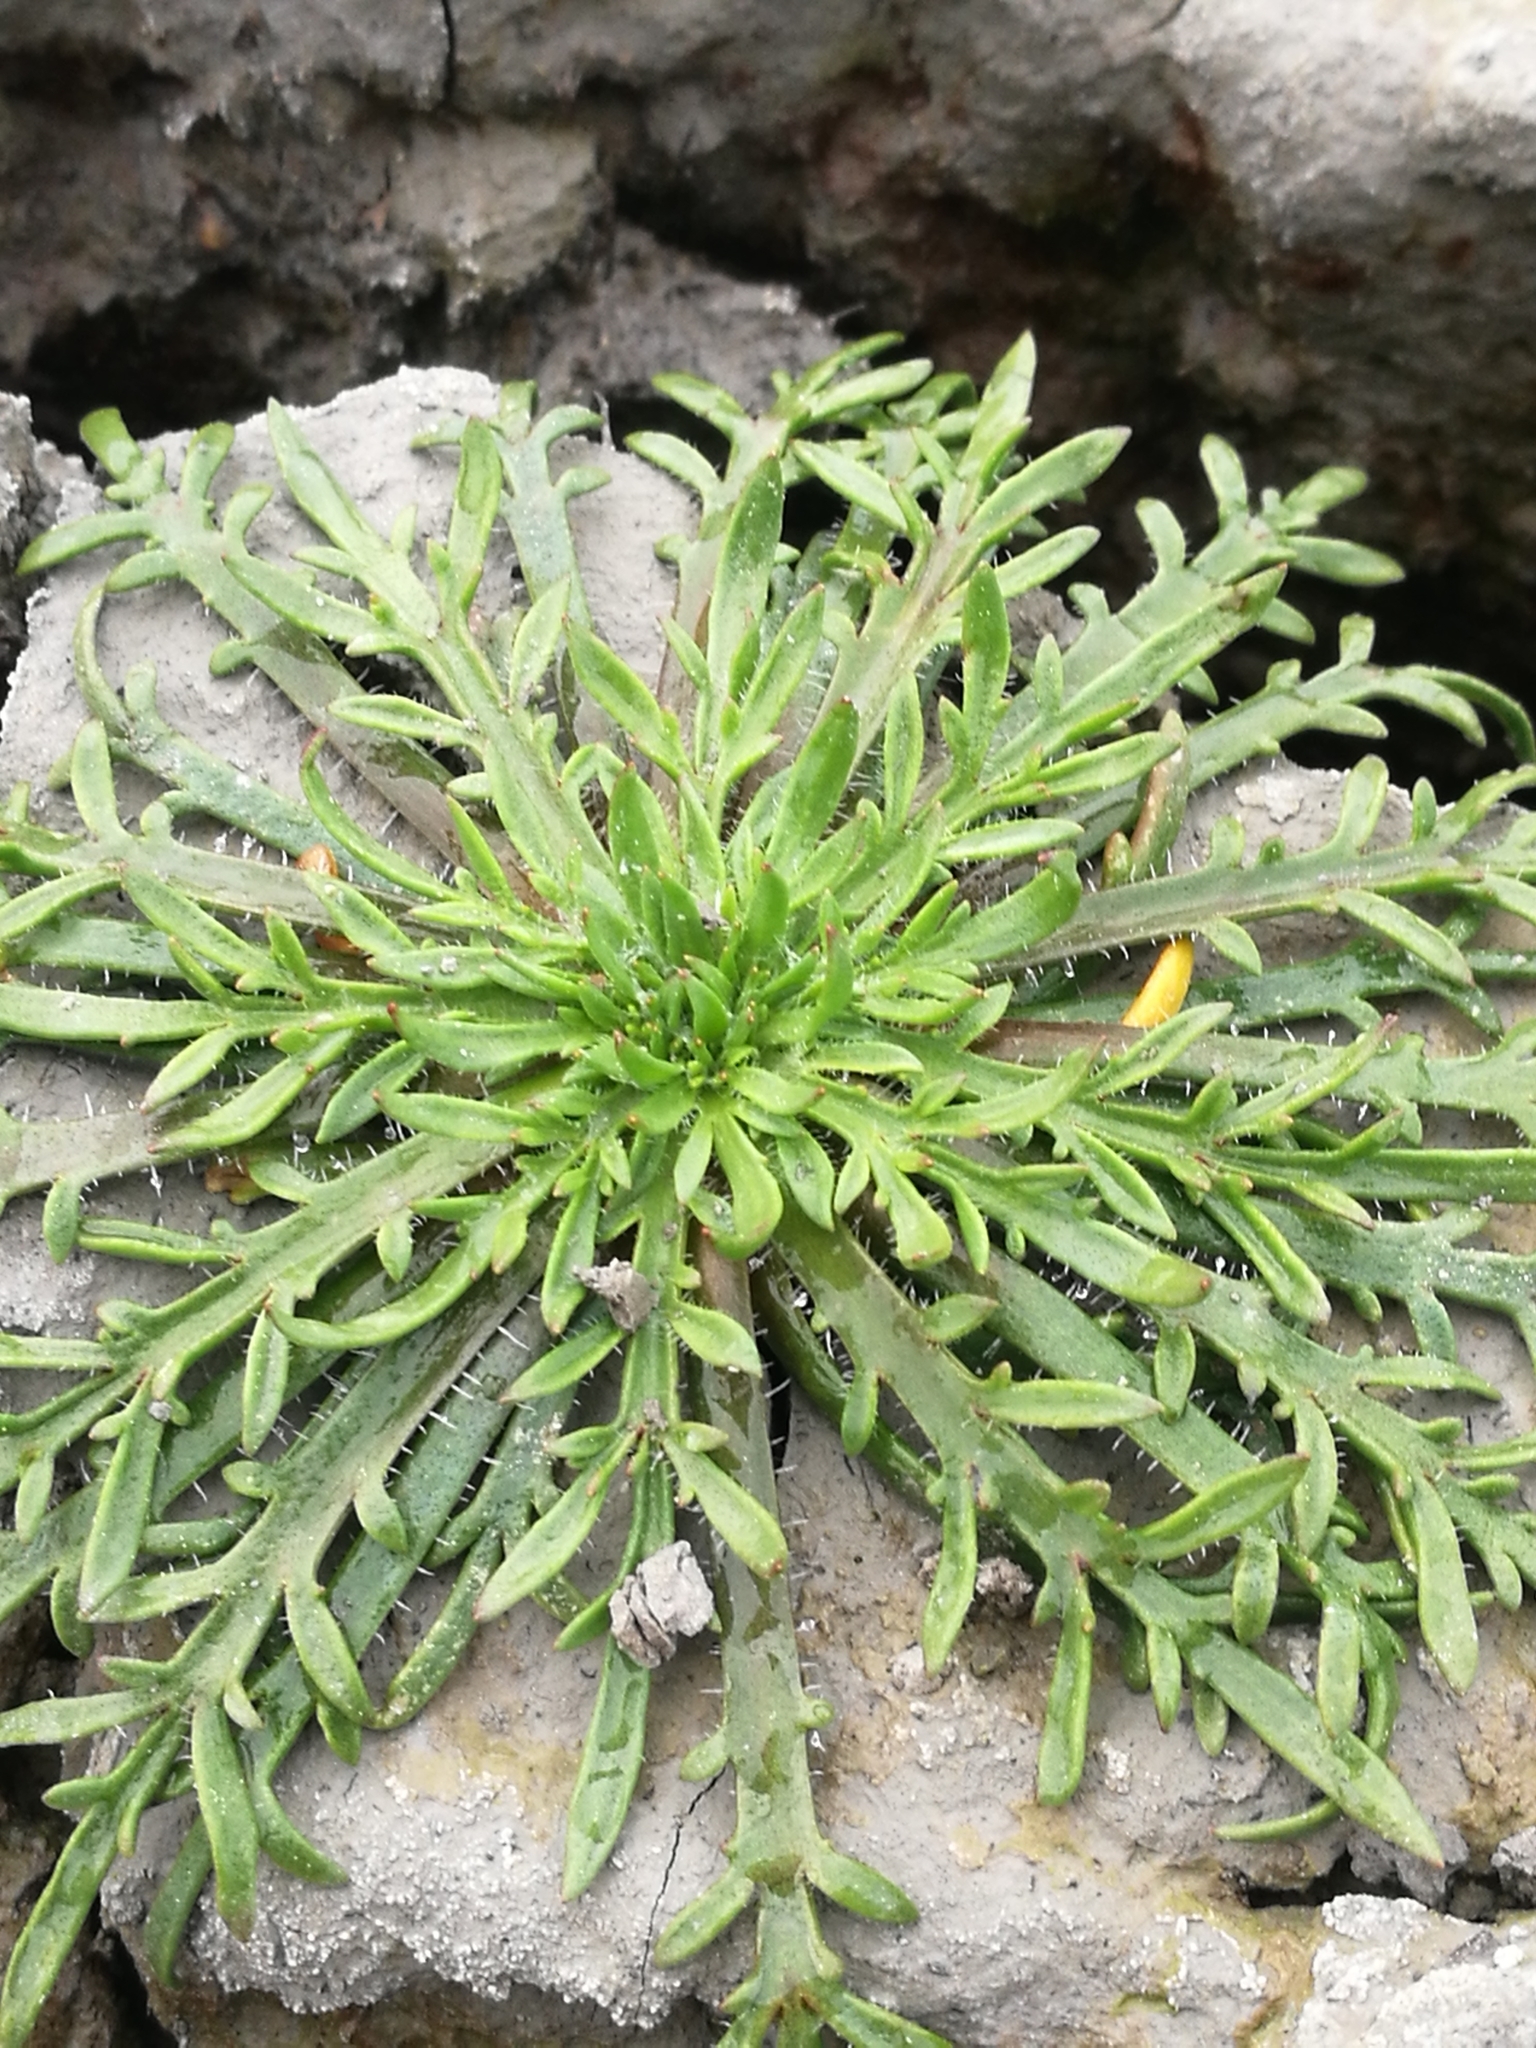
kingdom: Plantae
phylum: Tracheophyta
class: Magnoliopsida
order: Lamiales
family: Plantaginaceae
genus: Plantago
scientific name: Plantago coronopus
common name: Buck's-horn plantain
